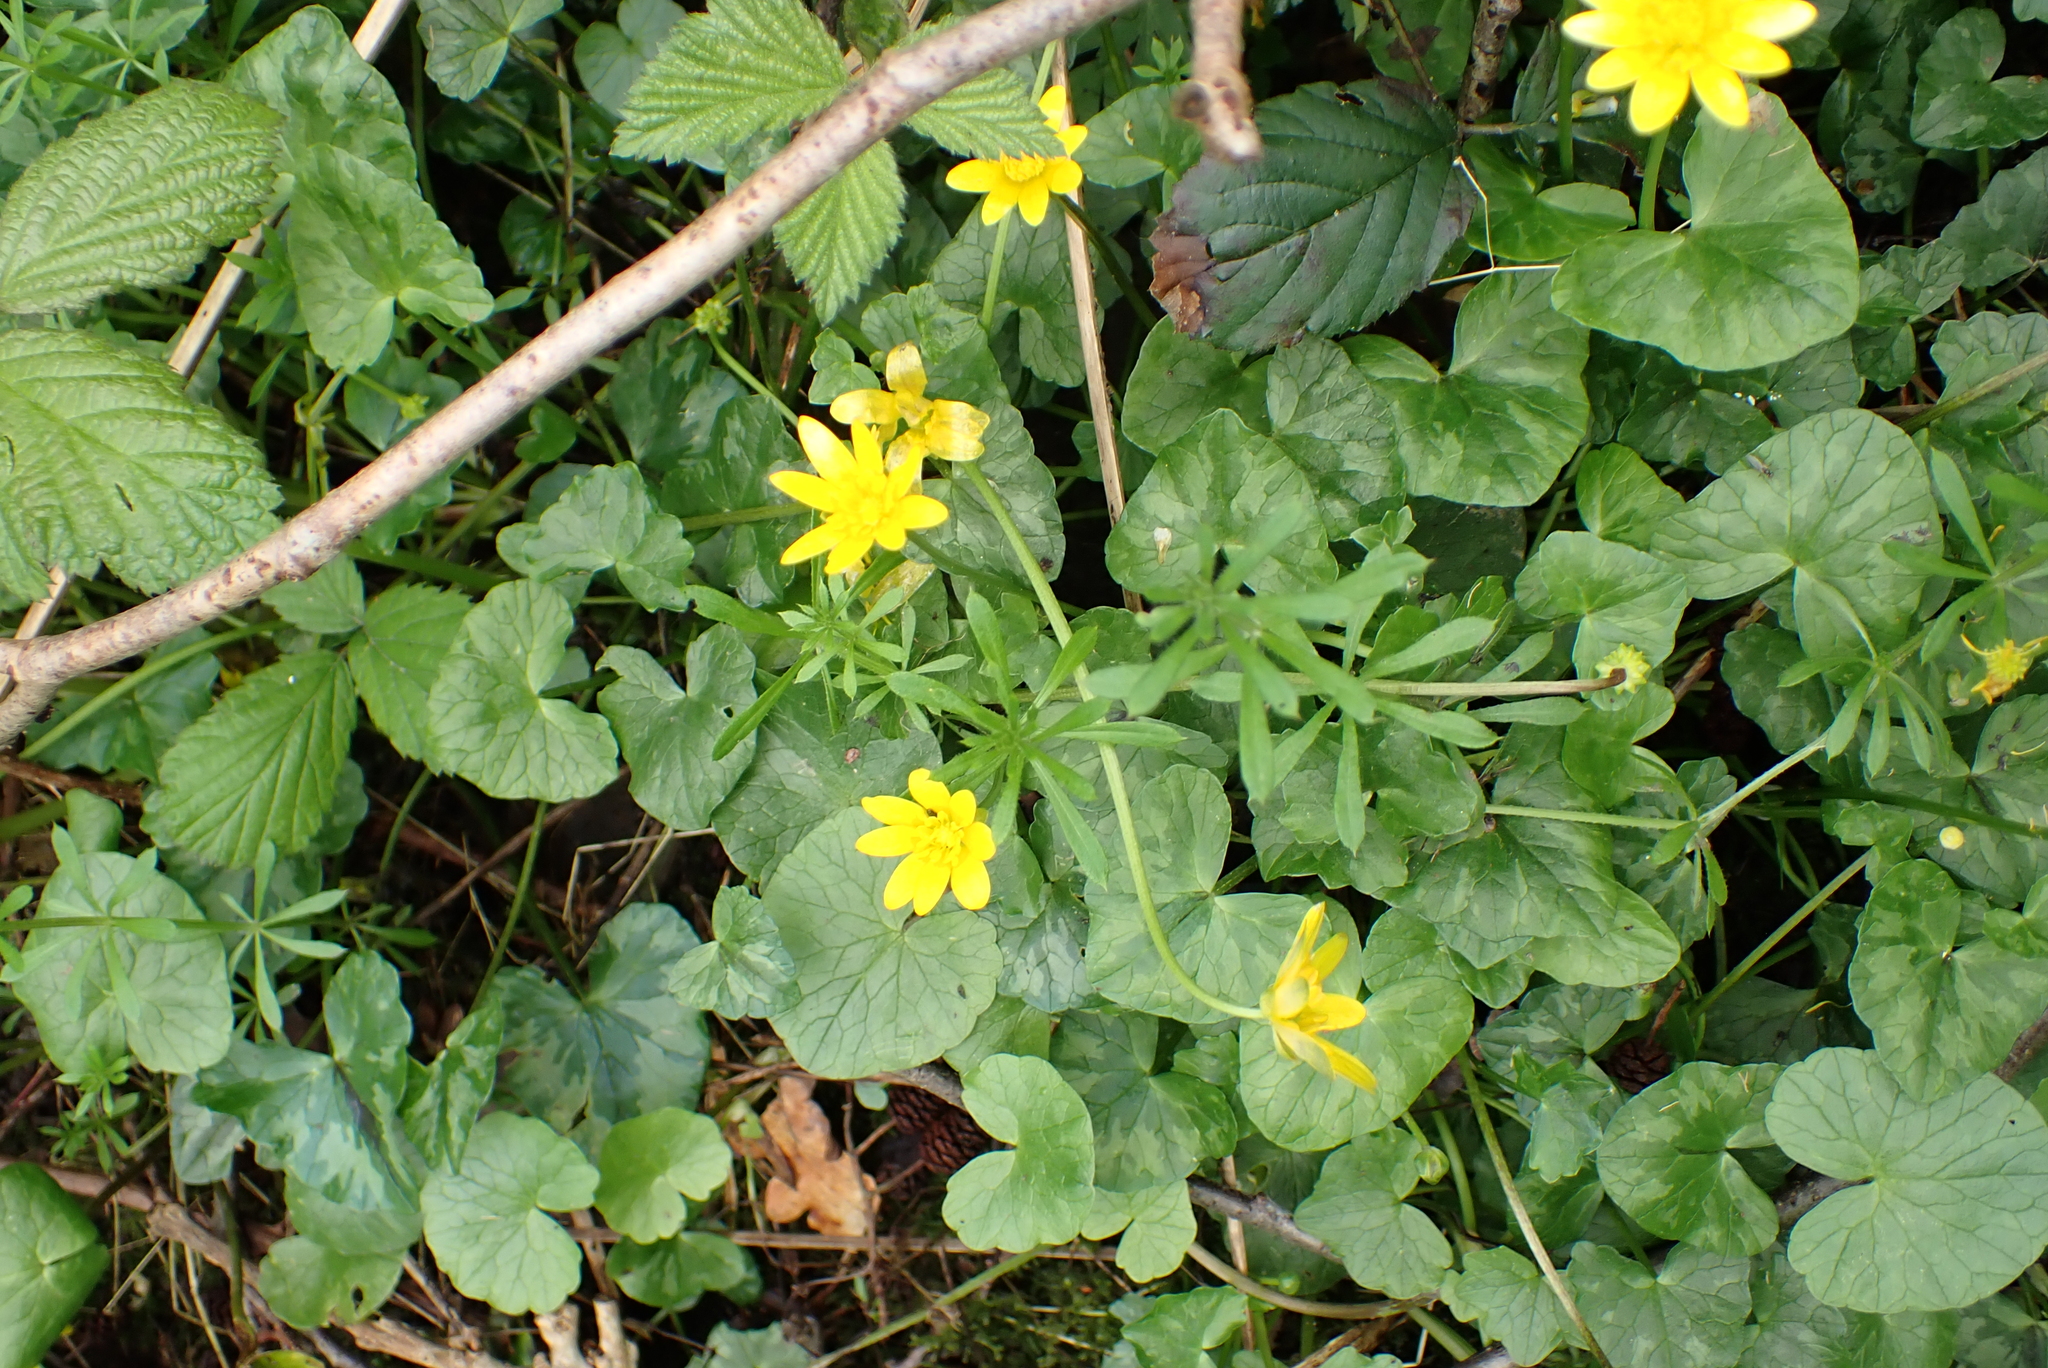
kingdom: Plantae
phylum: Tracheophyta
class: Magnoliopsida
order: Ranunculales
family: Ranunculaceae
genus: Ficaria
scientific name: Ficaria verna
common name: Lesser celandine
